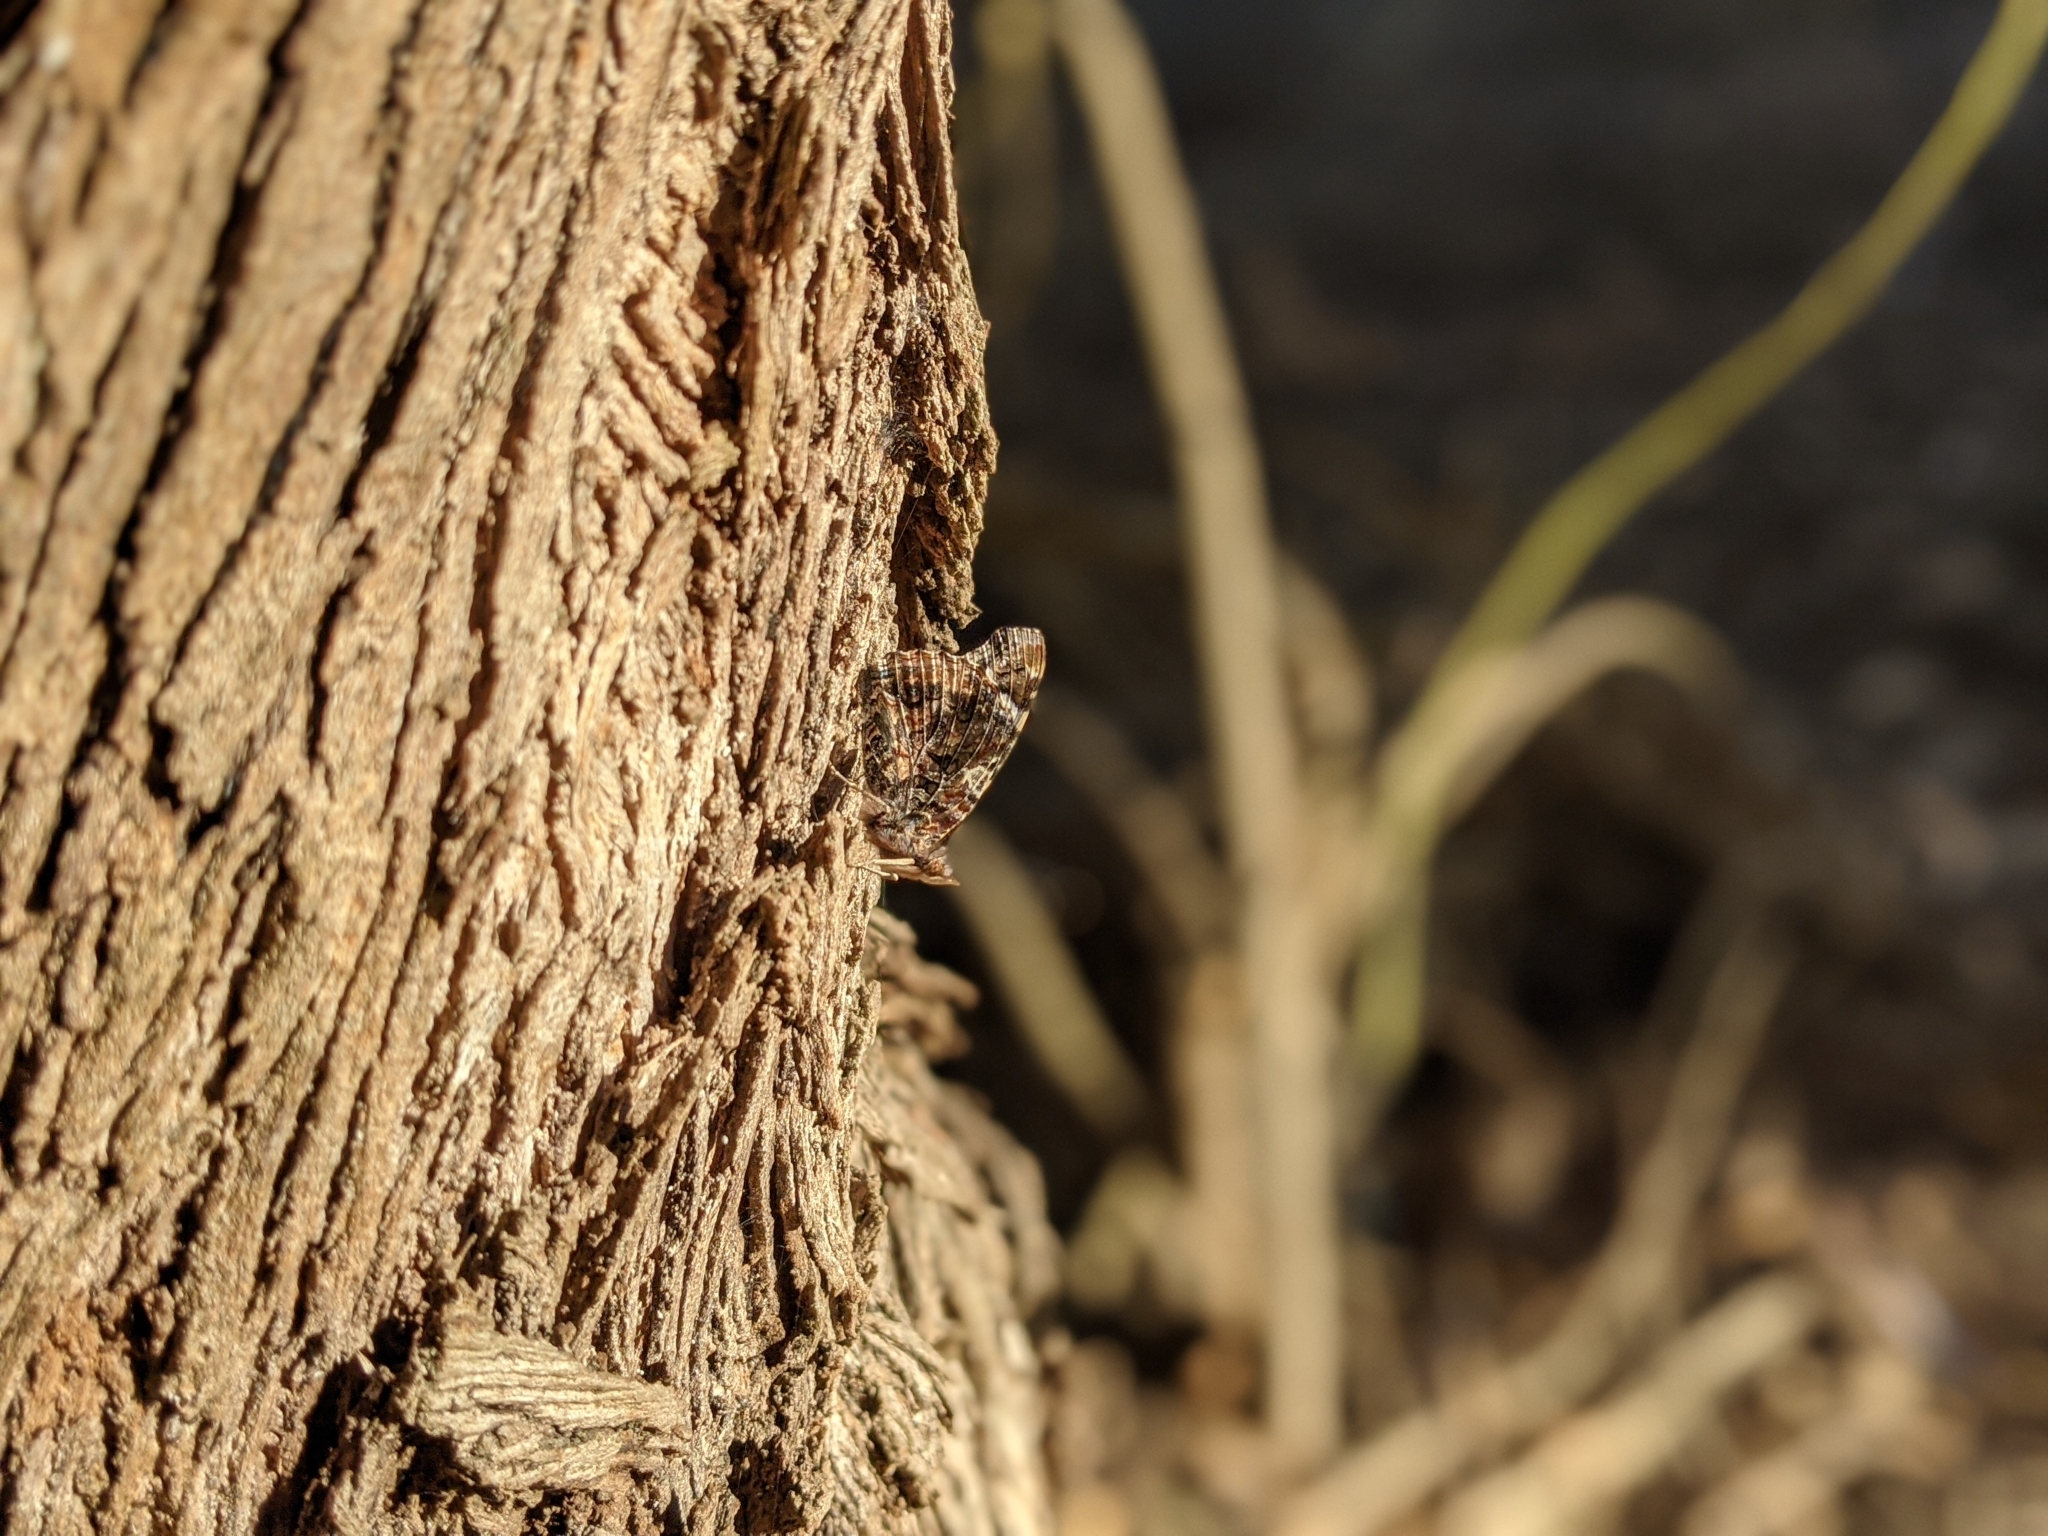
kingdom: Animalia
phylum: Arthropoda
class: Insecta
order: Lepidoptera
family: Nymphalidae
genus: Vanessa
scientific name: Vanessa atalanta
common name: Red admiral
